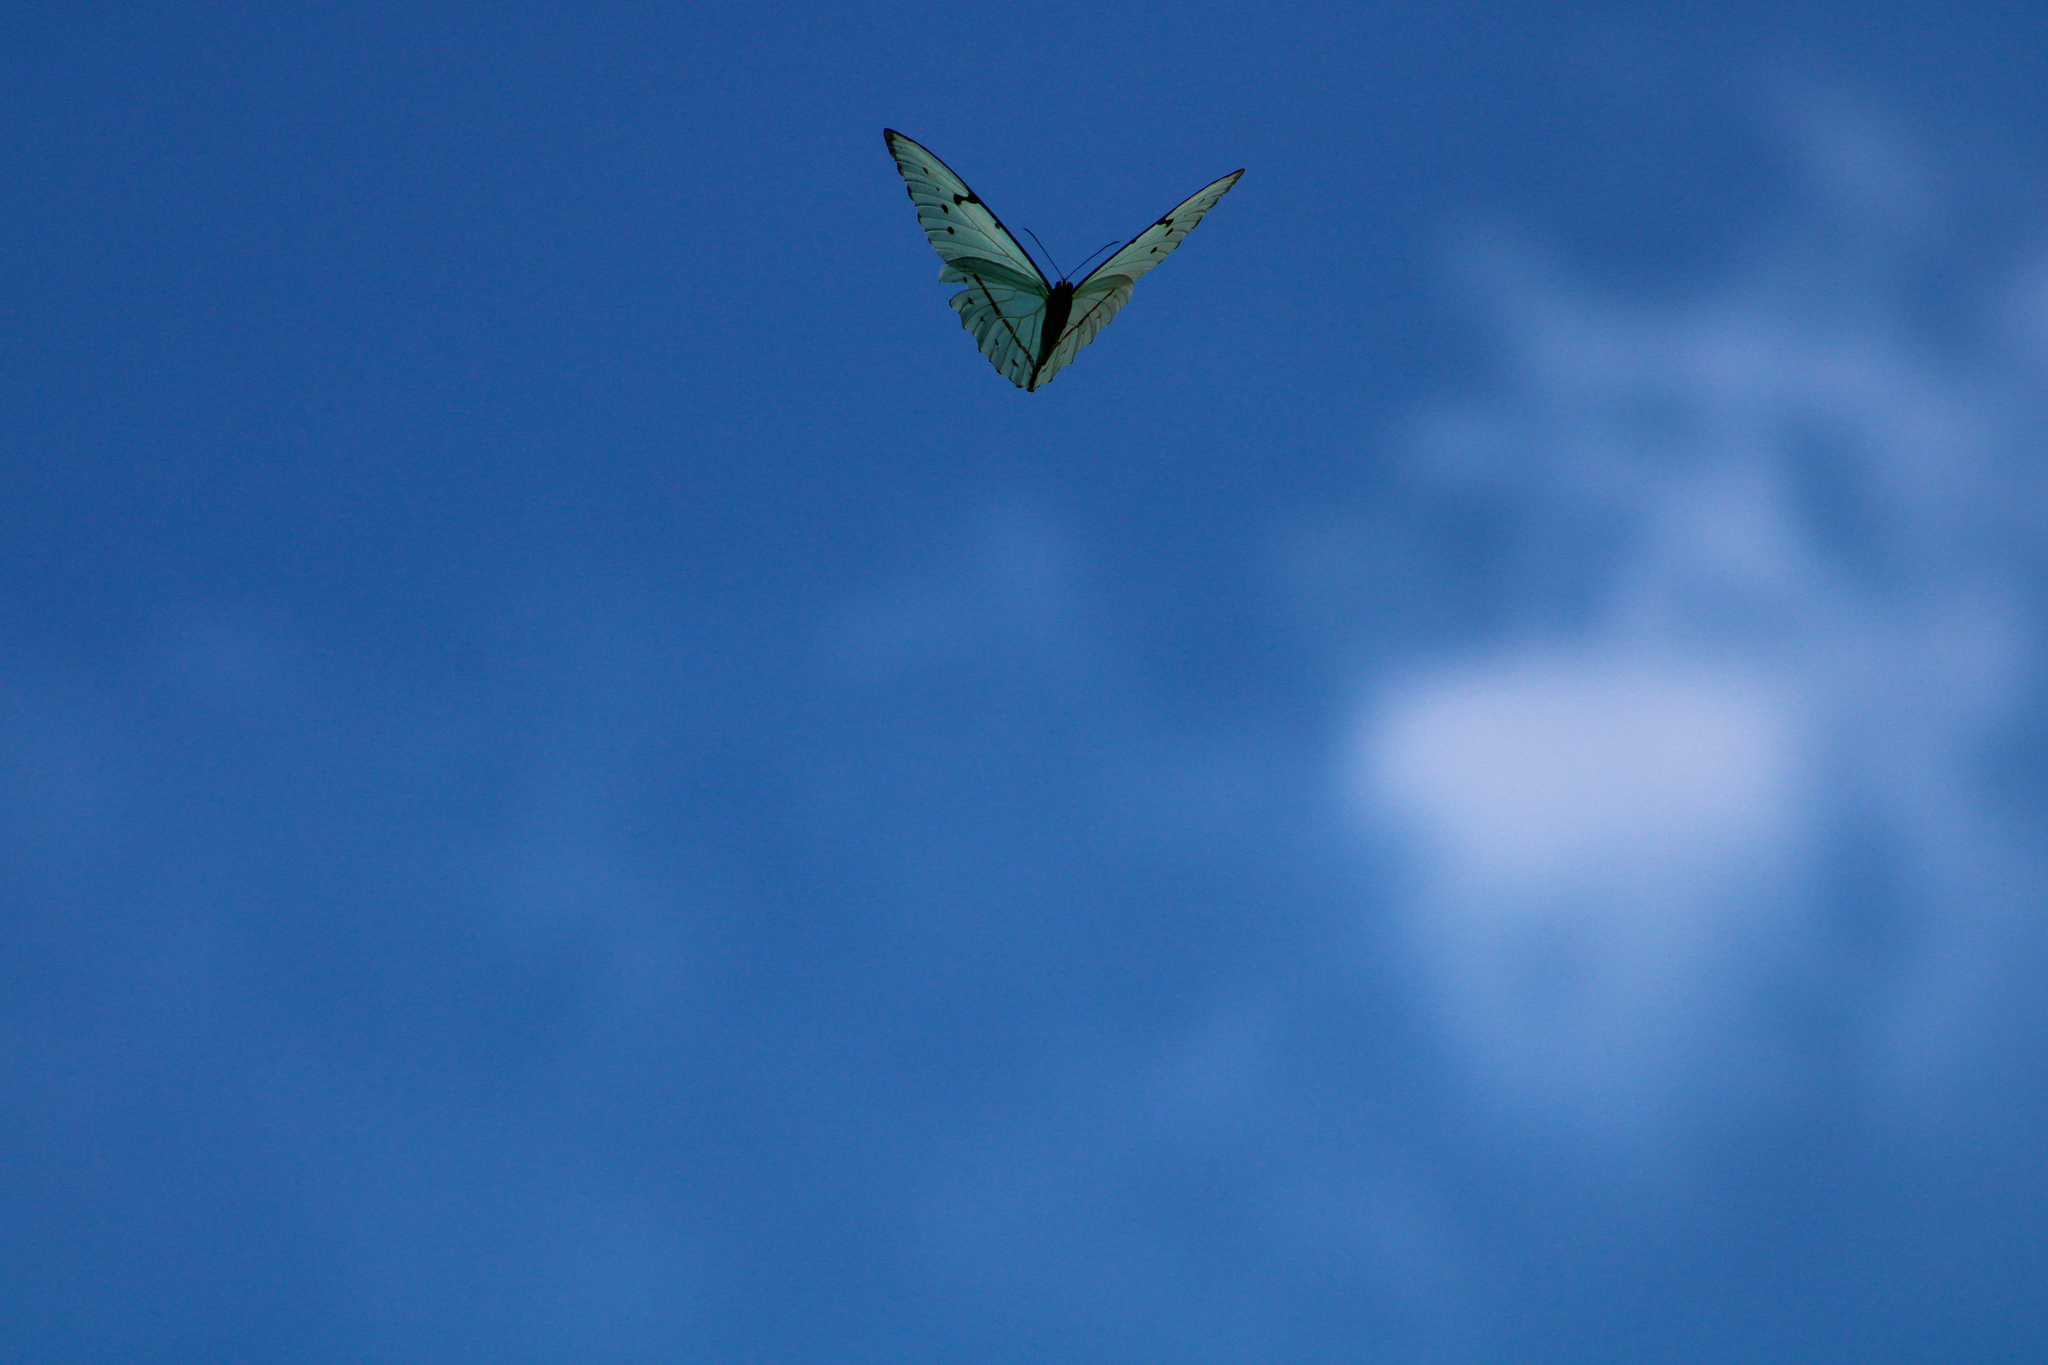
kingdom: Animalia
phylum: Arthropoda
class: Insecta
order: Lepidoptera
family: Nymphalidae
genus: Morpho
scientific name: Morpho epistrophus
